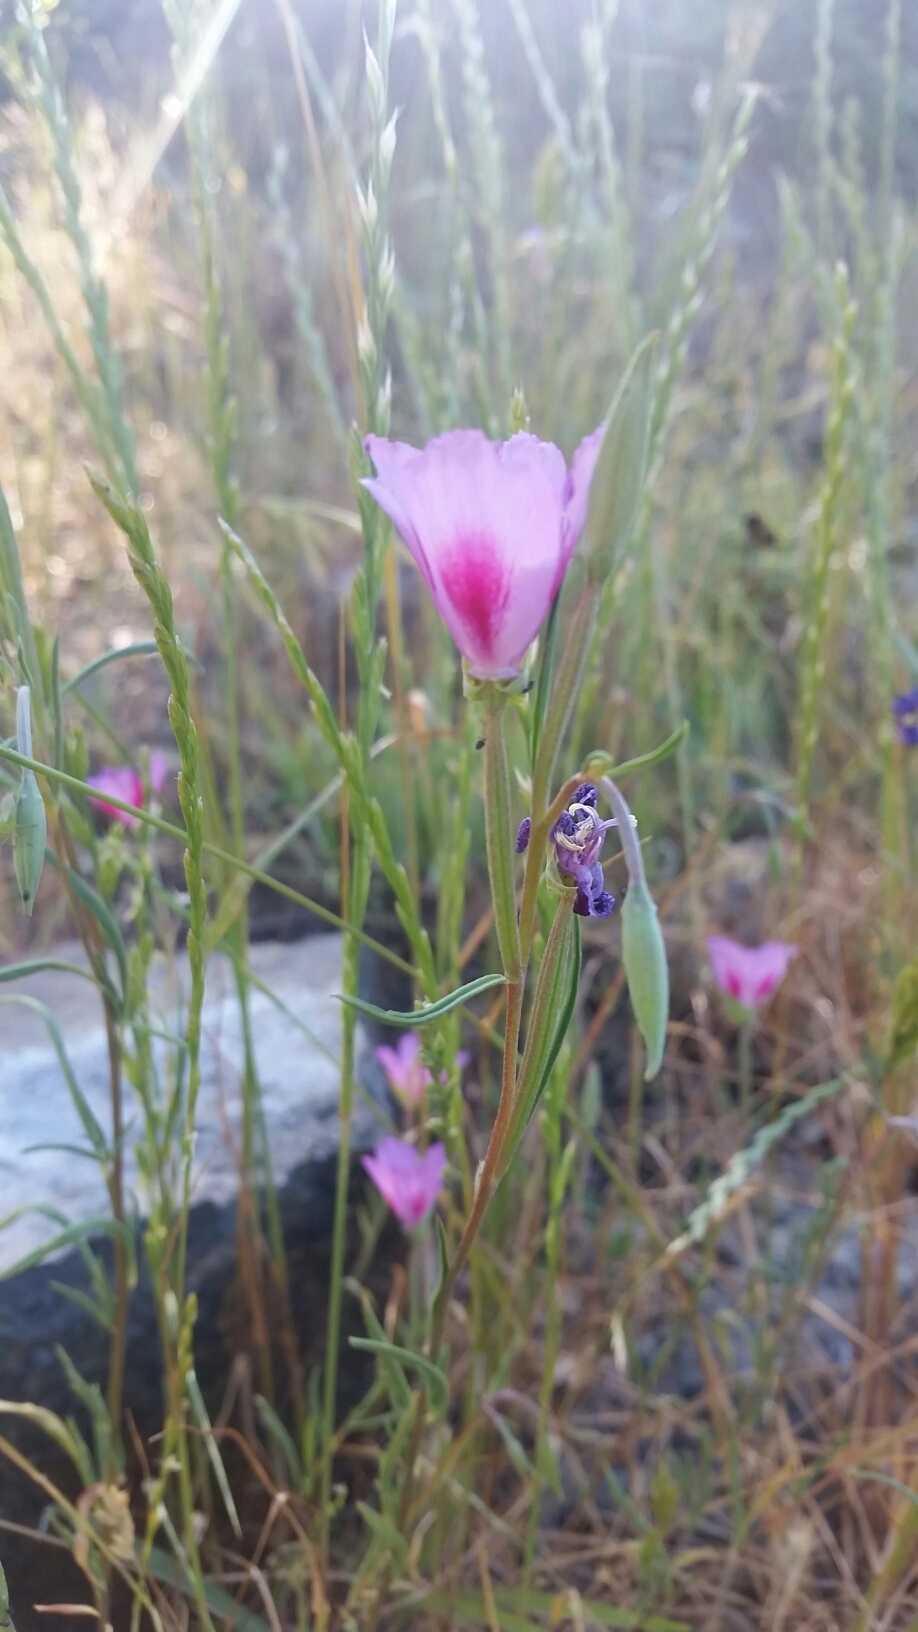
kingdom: Plantae
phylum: Tracheophyta
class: Magnoliopsida
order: Myrtales
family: Onagraceae
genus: Clarkia
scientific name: Clarkia gracilis
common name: Graceful clarkia
